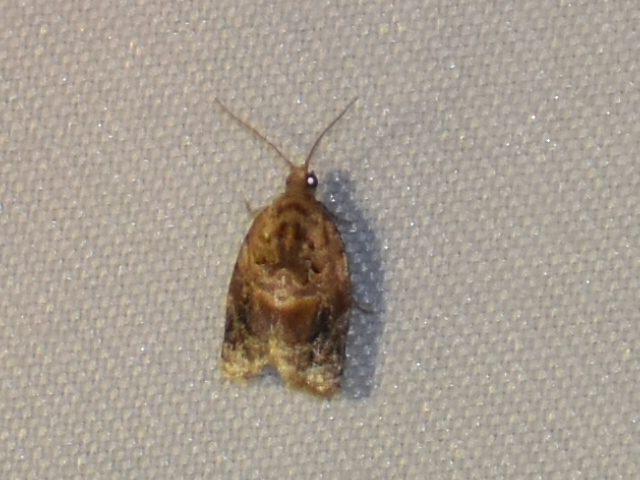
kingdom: Animalia
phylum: Arthropoda
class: Insecta
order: Lepidoptera
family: Tortricidae
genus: Argyrotaenia
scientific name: Argyrotaenia velutinana
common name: Red-banded leafroller moth
